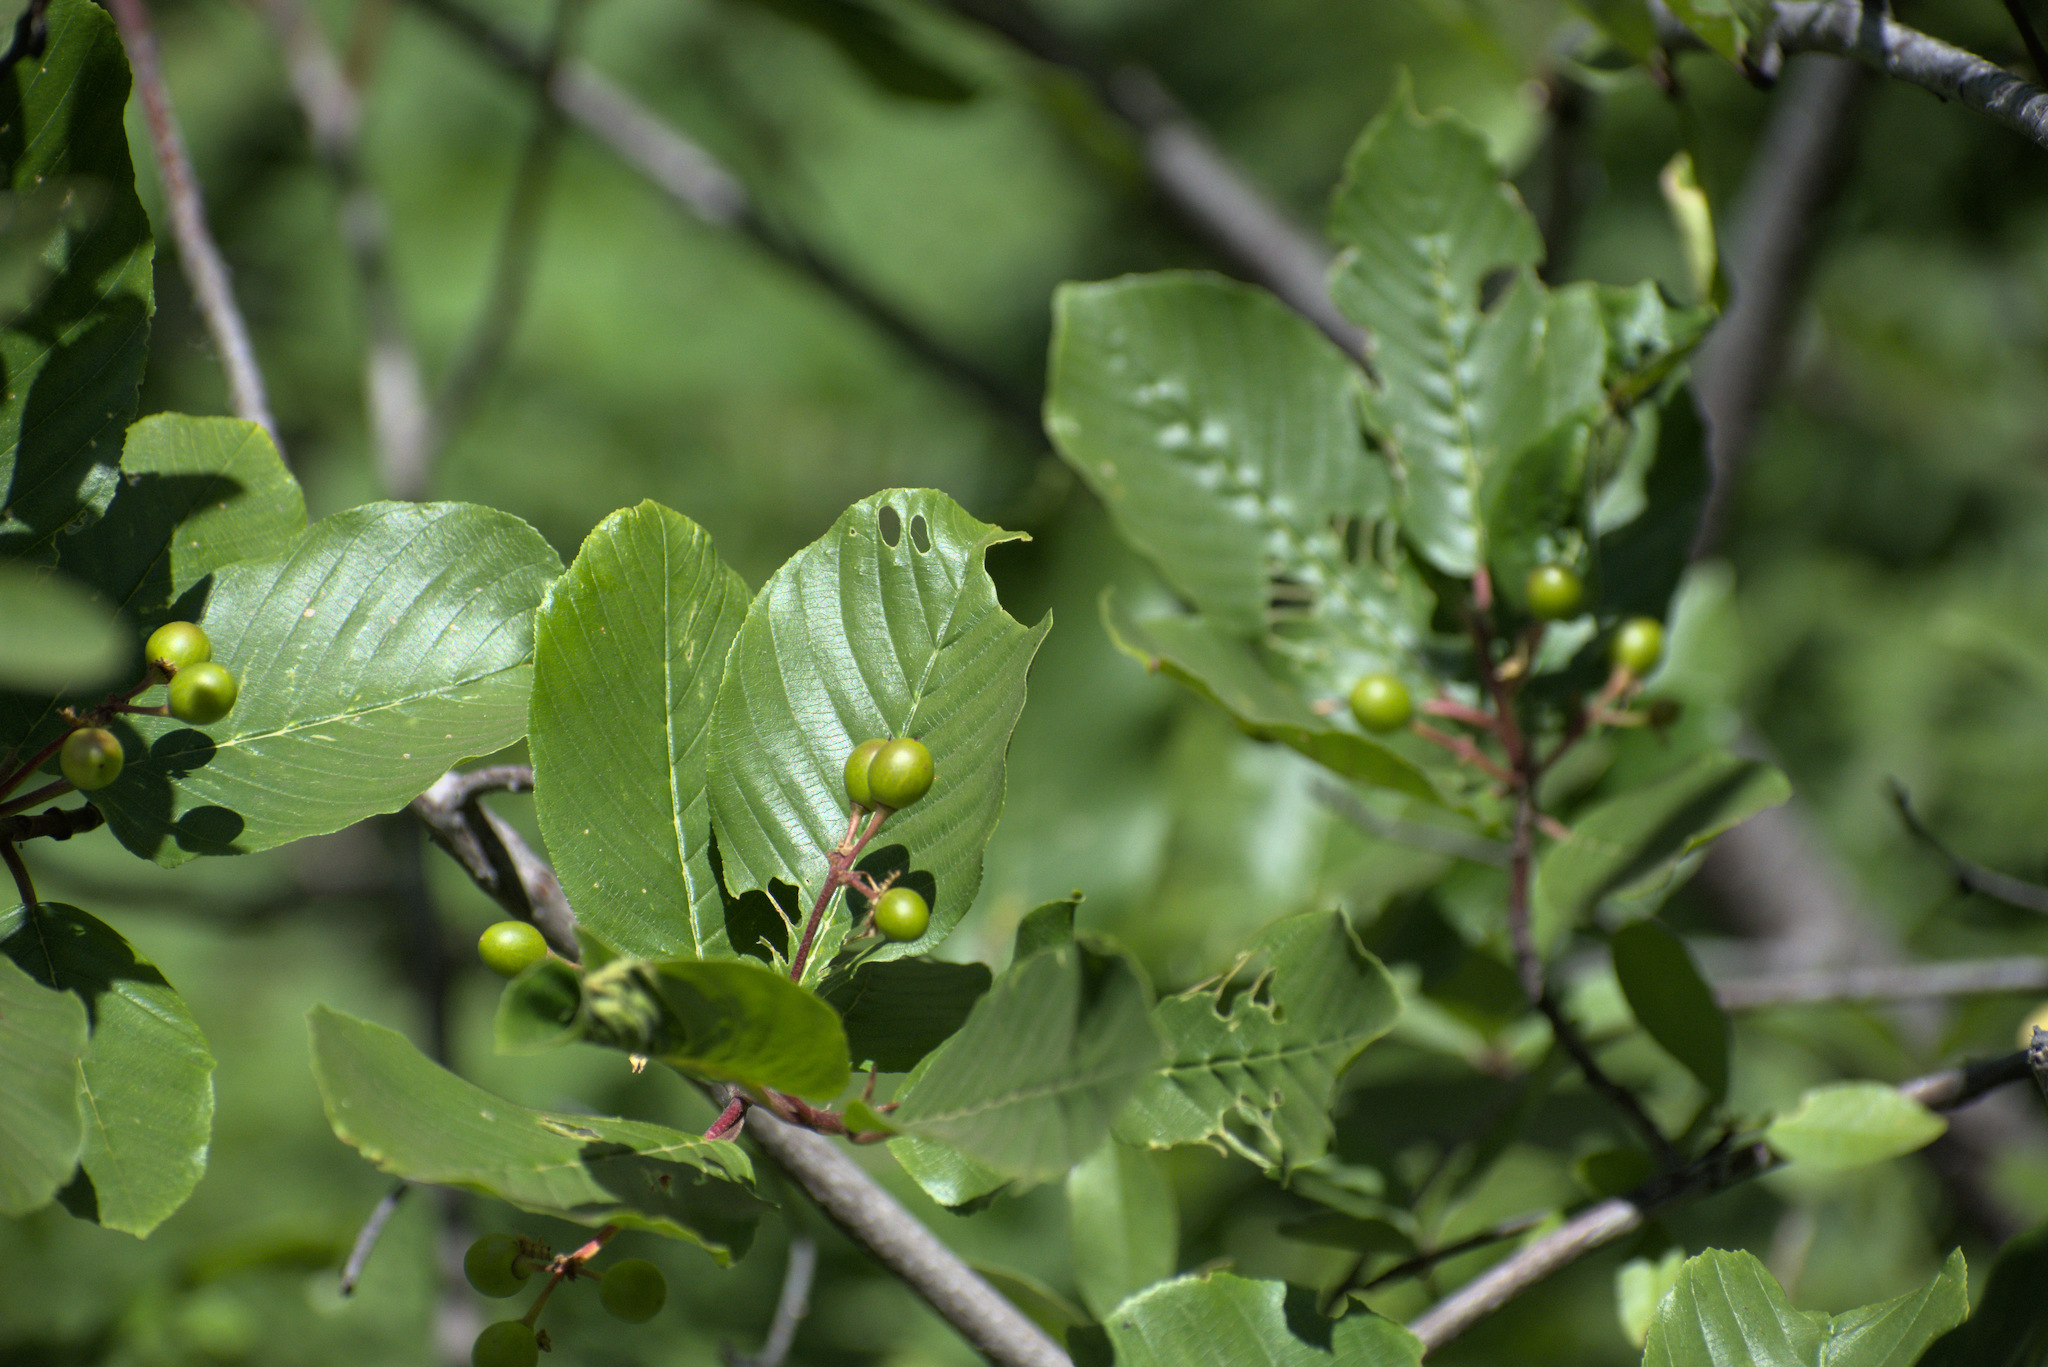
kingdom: Plantae
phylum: Tracheophyta
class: Magnoliopsida
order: Rosales
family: Rhamnaceae
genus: Frangula
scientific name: Frangula purshiana
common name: Cascara buckthorn
